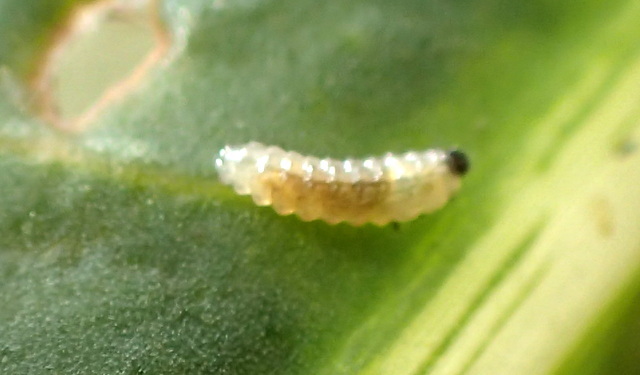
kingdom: Animalia
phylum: Arthropoda
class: Insecta
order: Coleoptera
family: Chrysomelidae
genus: Agasicles
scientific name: Agasicles hygrophila
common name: Alligatorweed flea beetle
